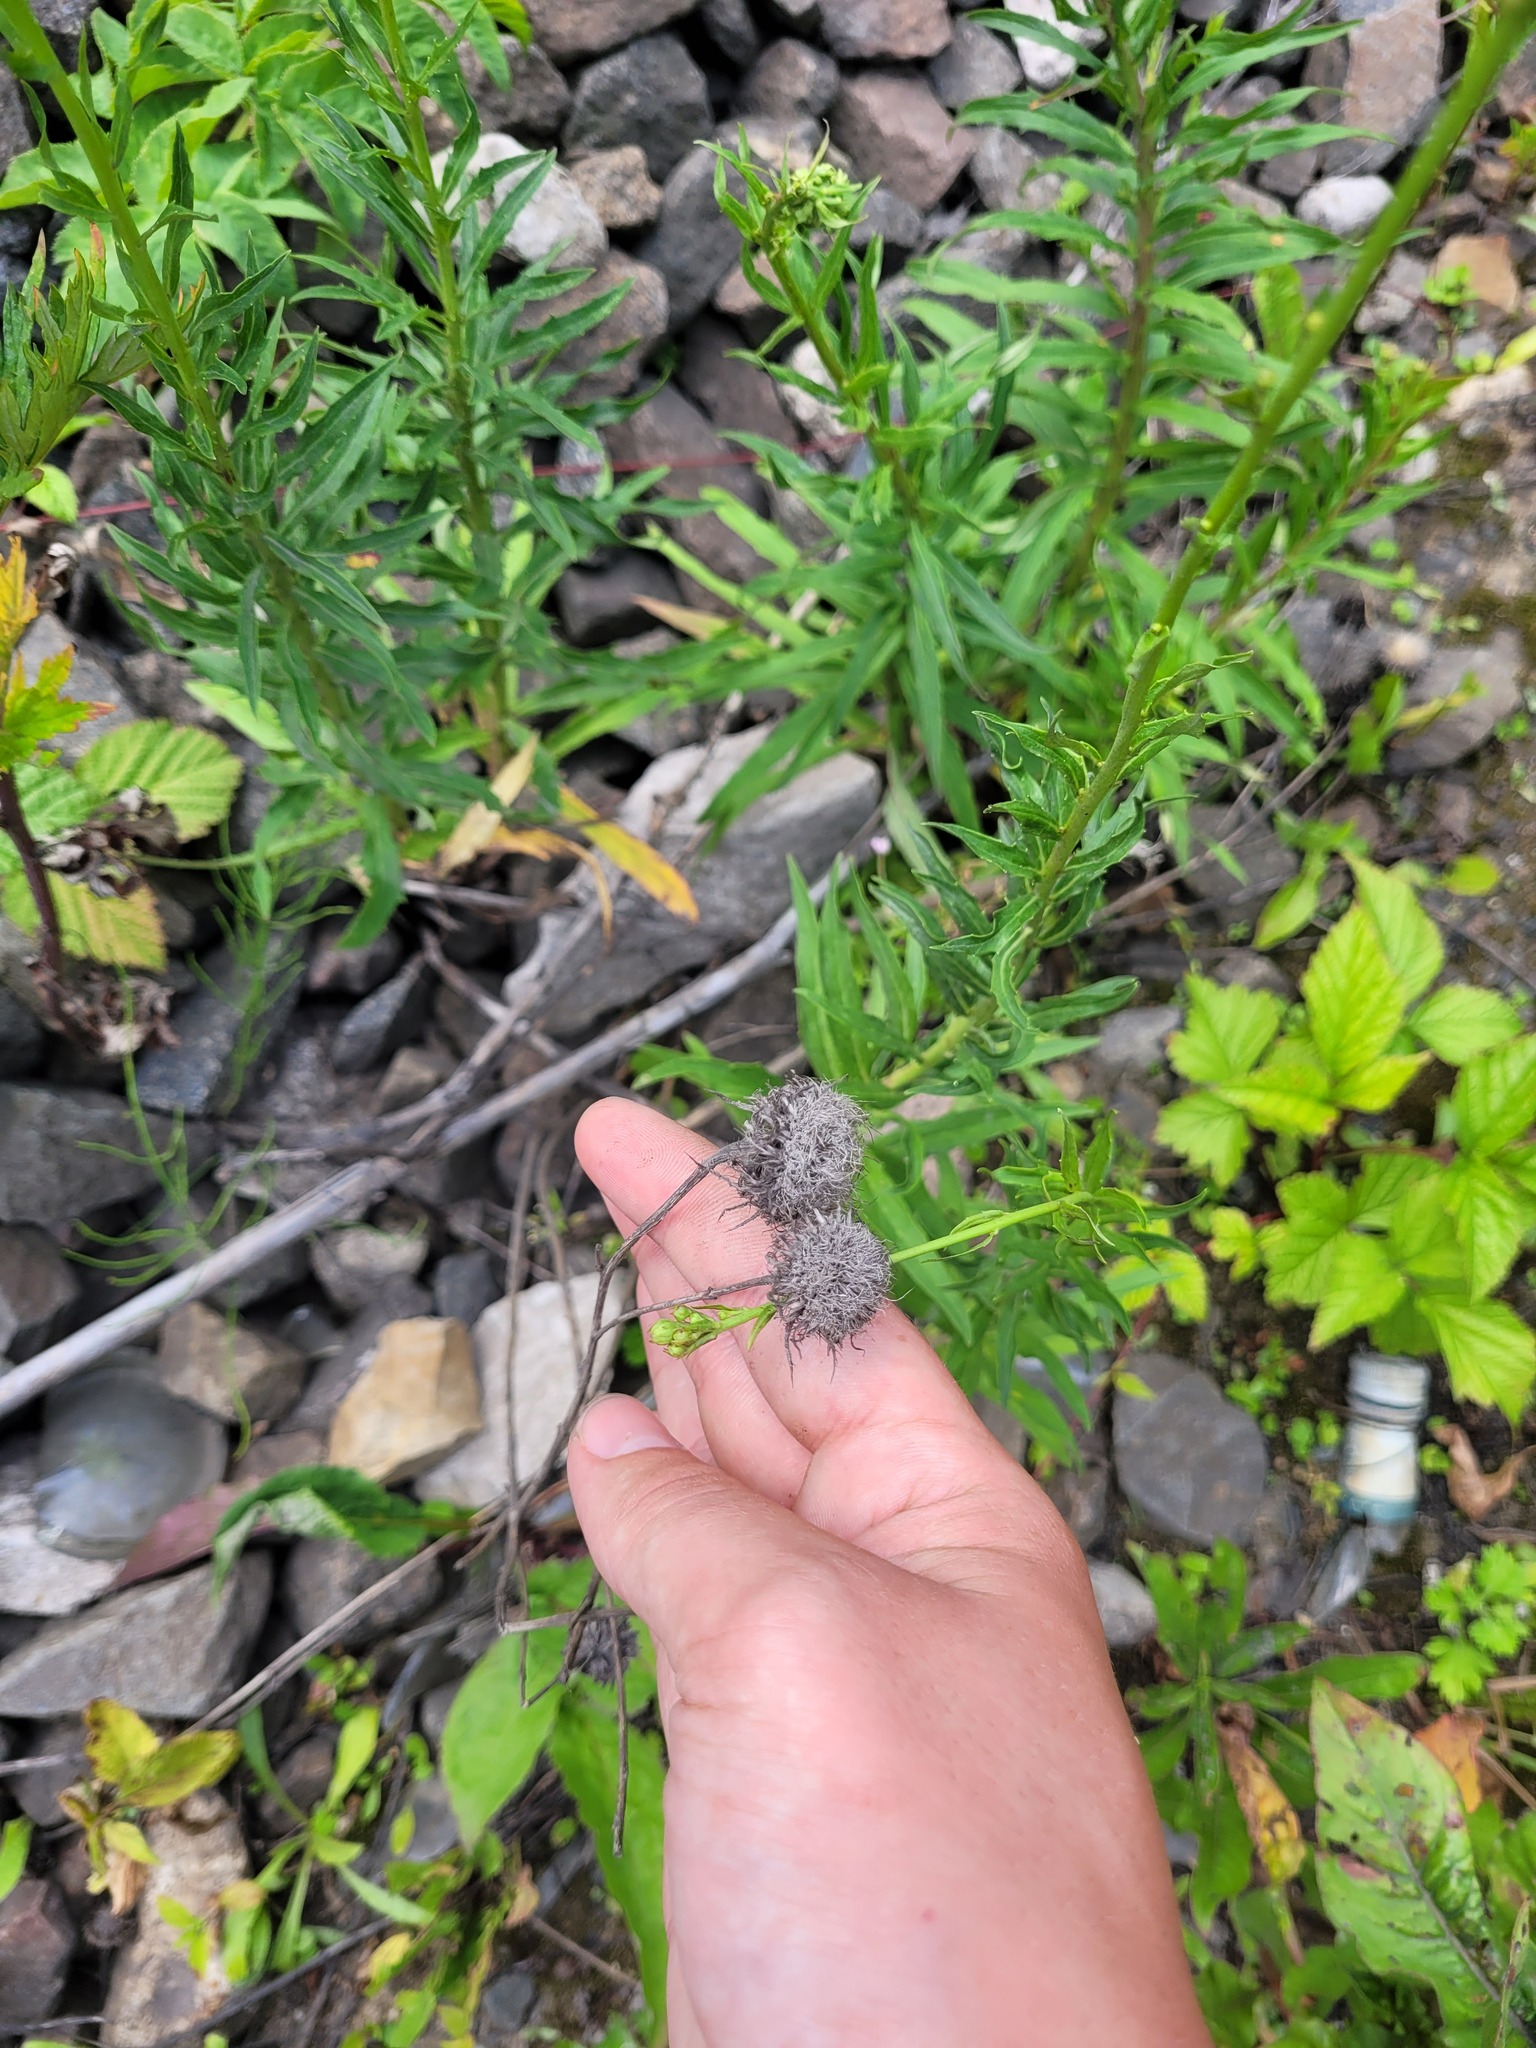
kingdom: Plantae
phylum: Tracheophyta
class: Magnoliopsida
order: Asterales
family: Asteraceae
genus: Carlina
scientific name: Carlina biebersteinii
